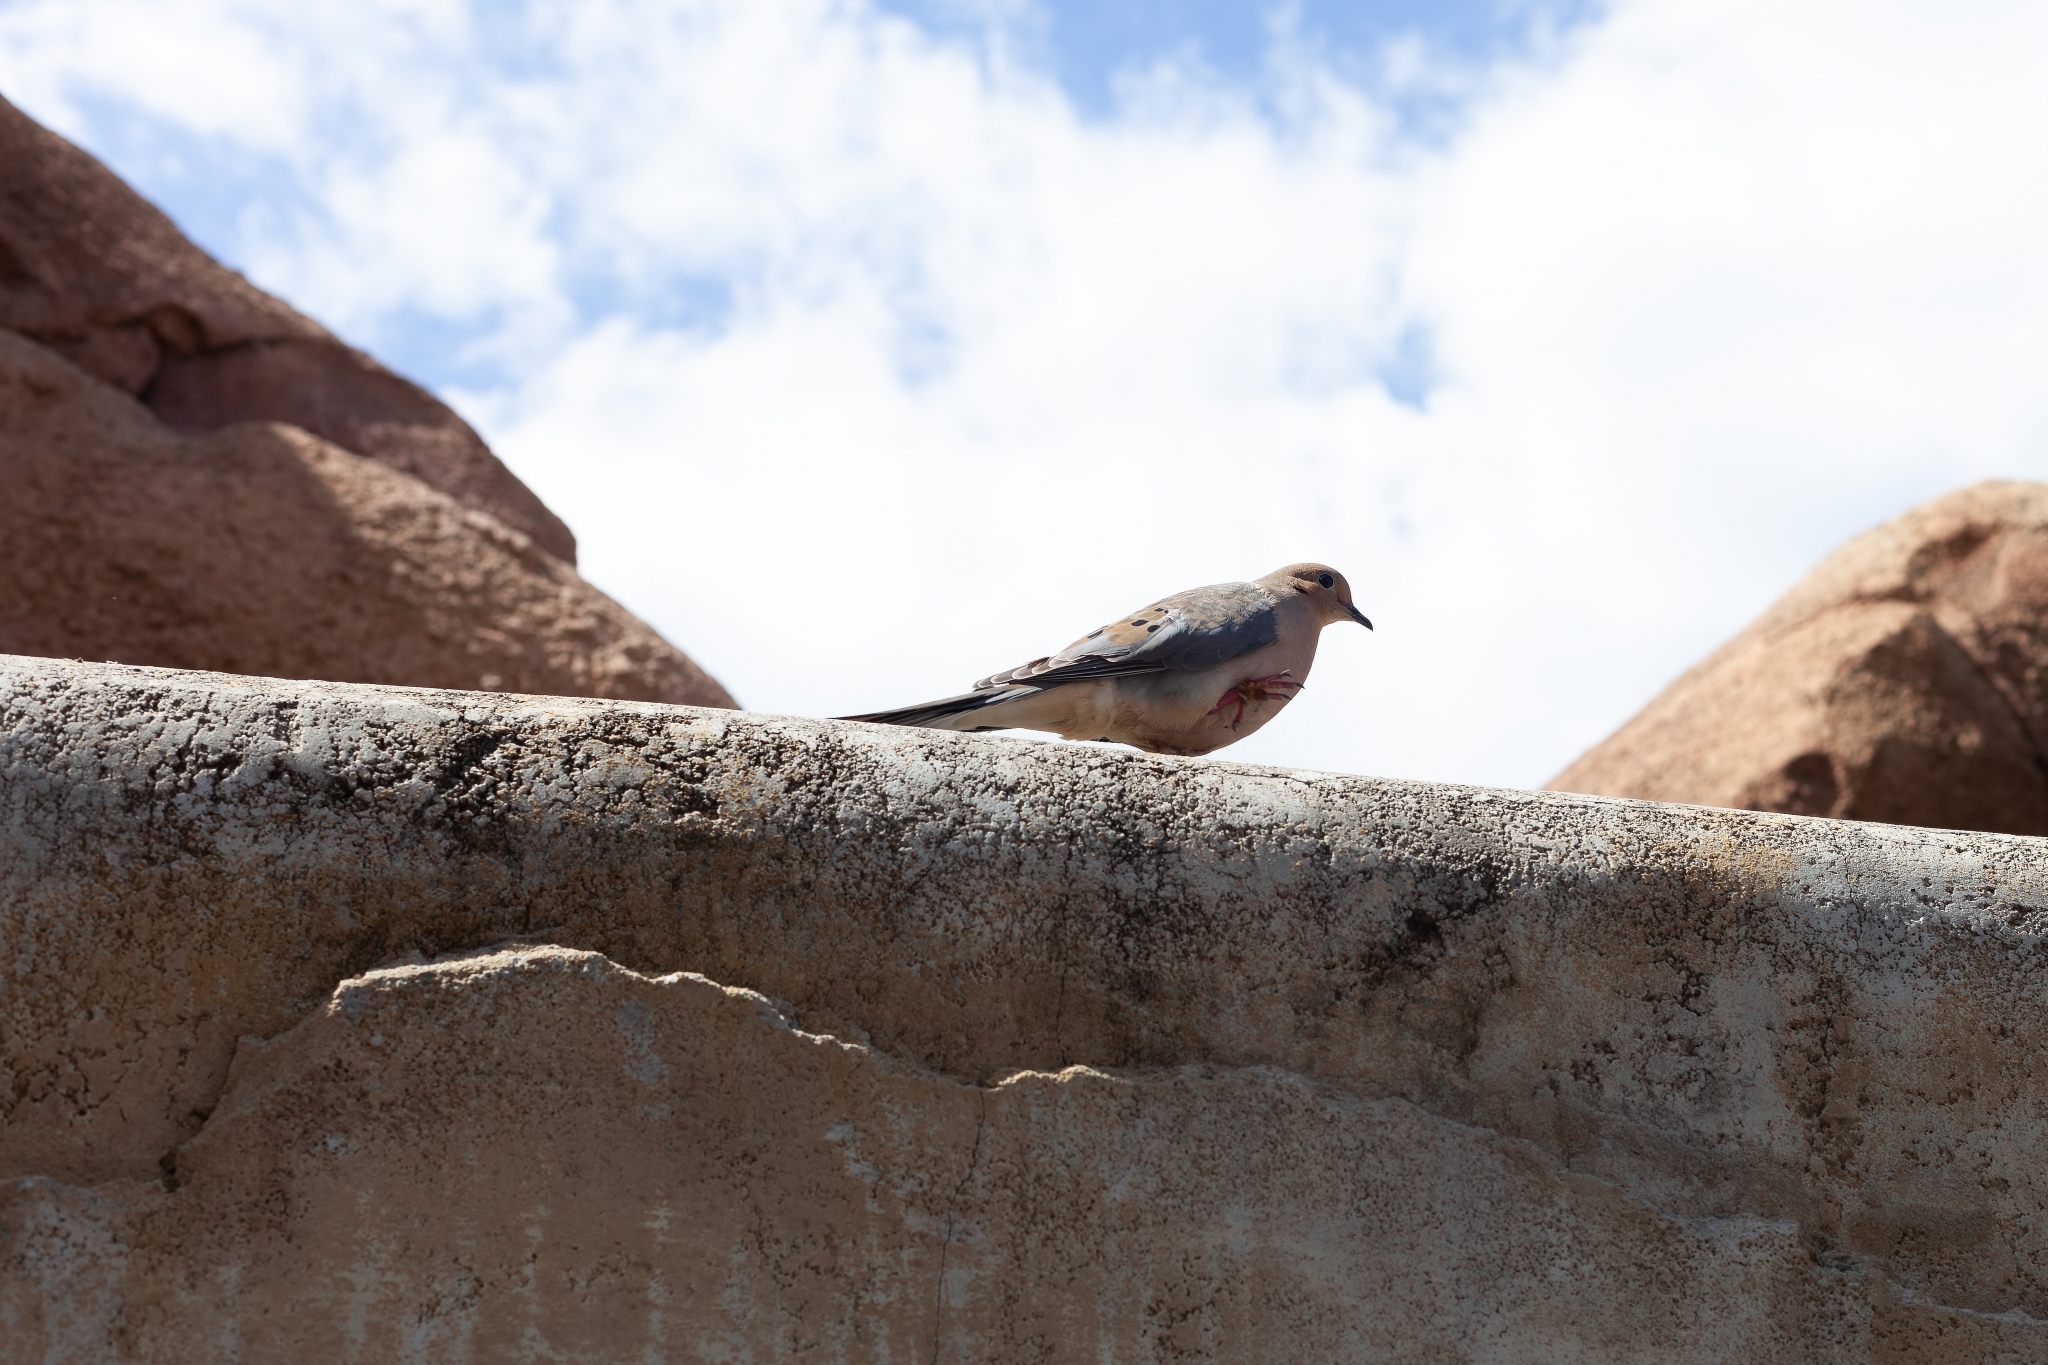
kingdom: Animalia
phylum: Chordata
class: Aves
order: Columbiformes
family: Columbidae
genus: Zenaida
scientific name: Zenaida macroura
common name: Mourning dove
